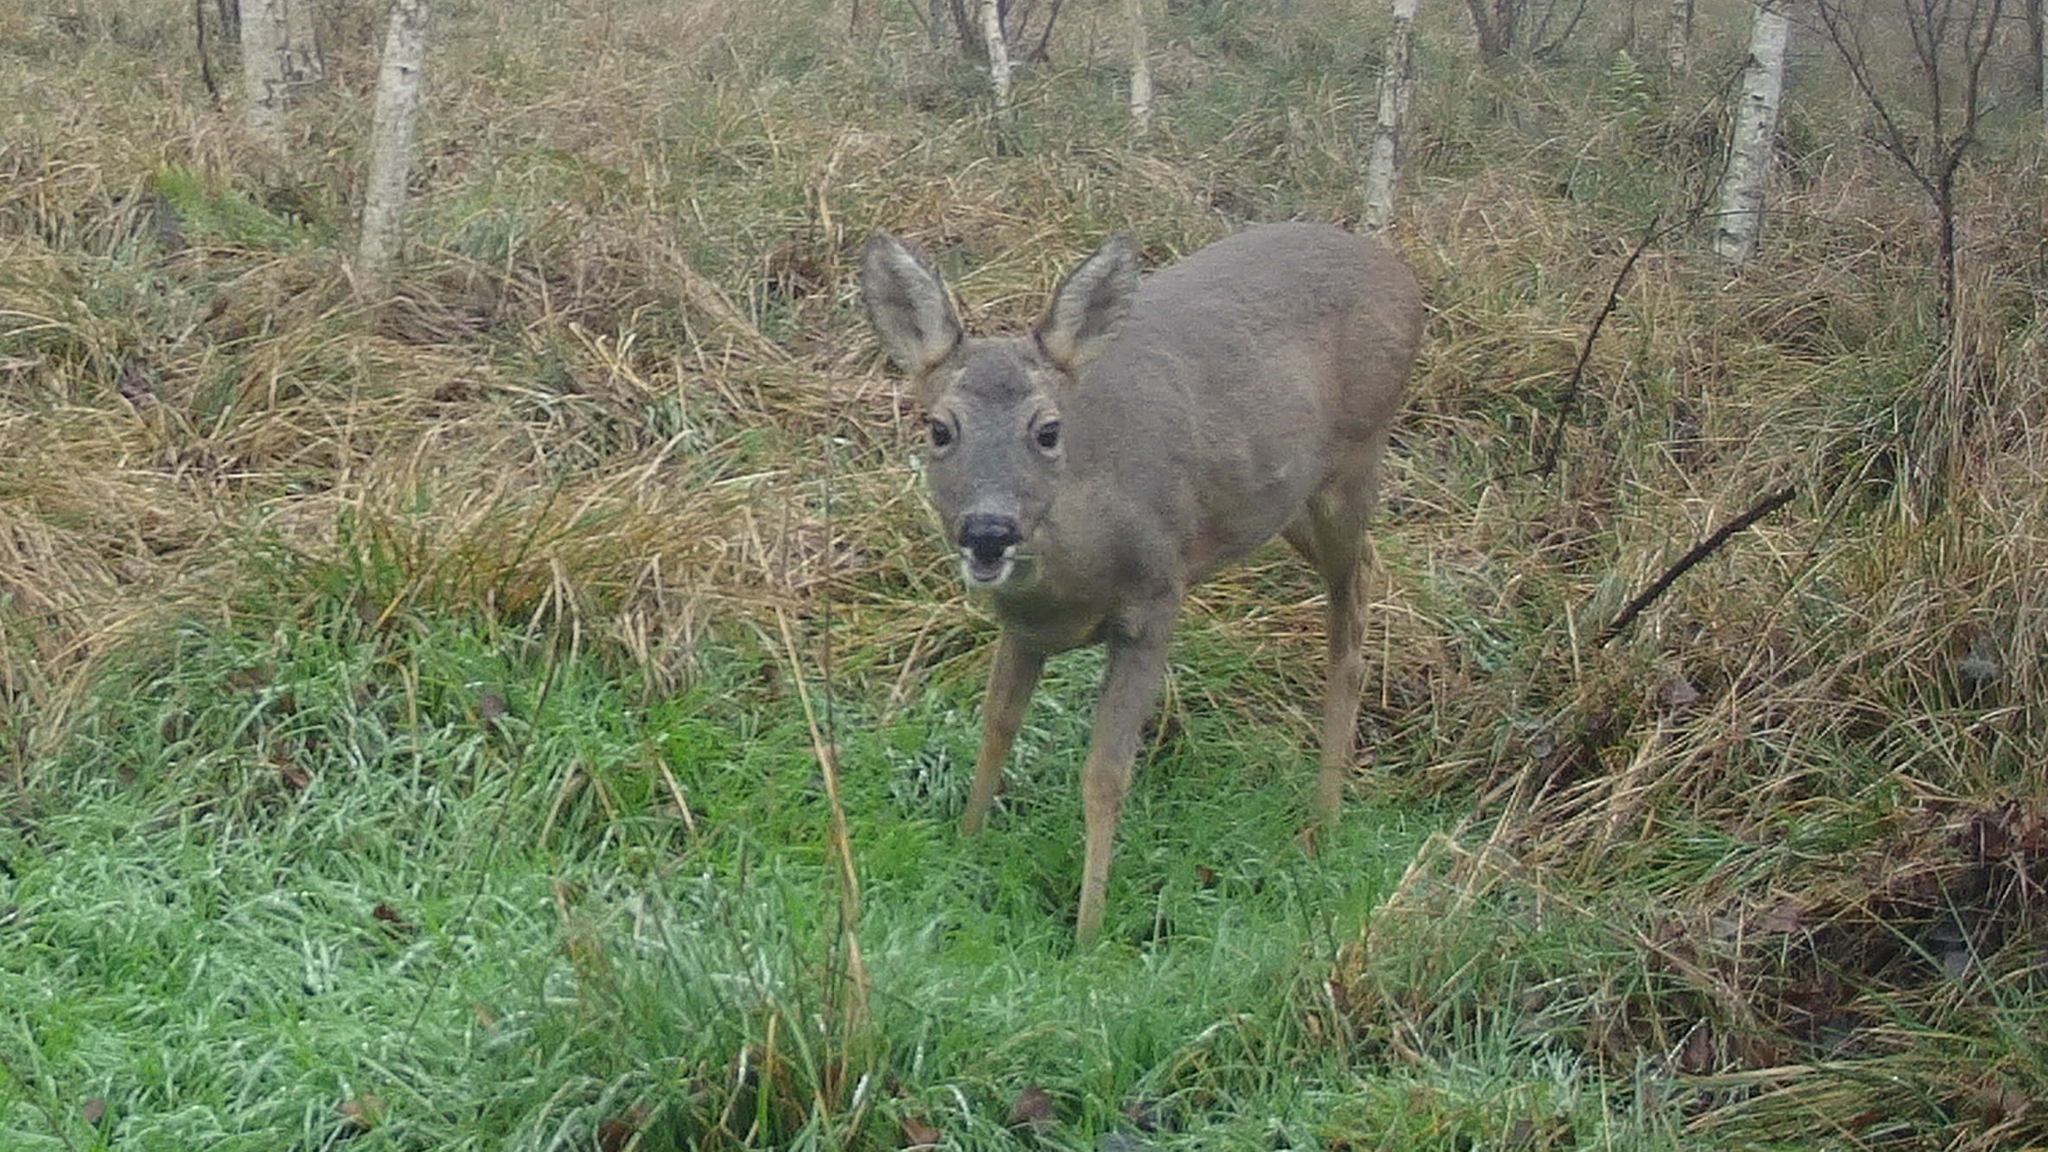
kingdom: Animalia
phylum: Chordata
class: Mammalia
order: Artiodactyla
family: Cervidae
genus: Capreolus
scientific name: Capreolus capreolus
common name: Western roe deer
